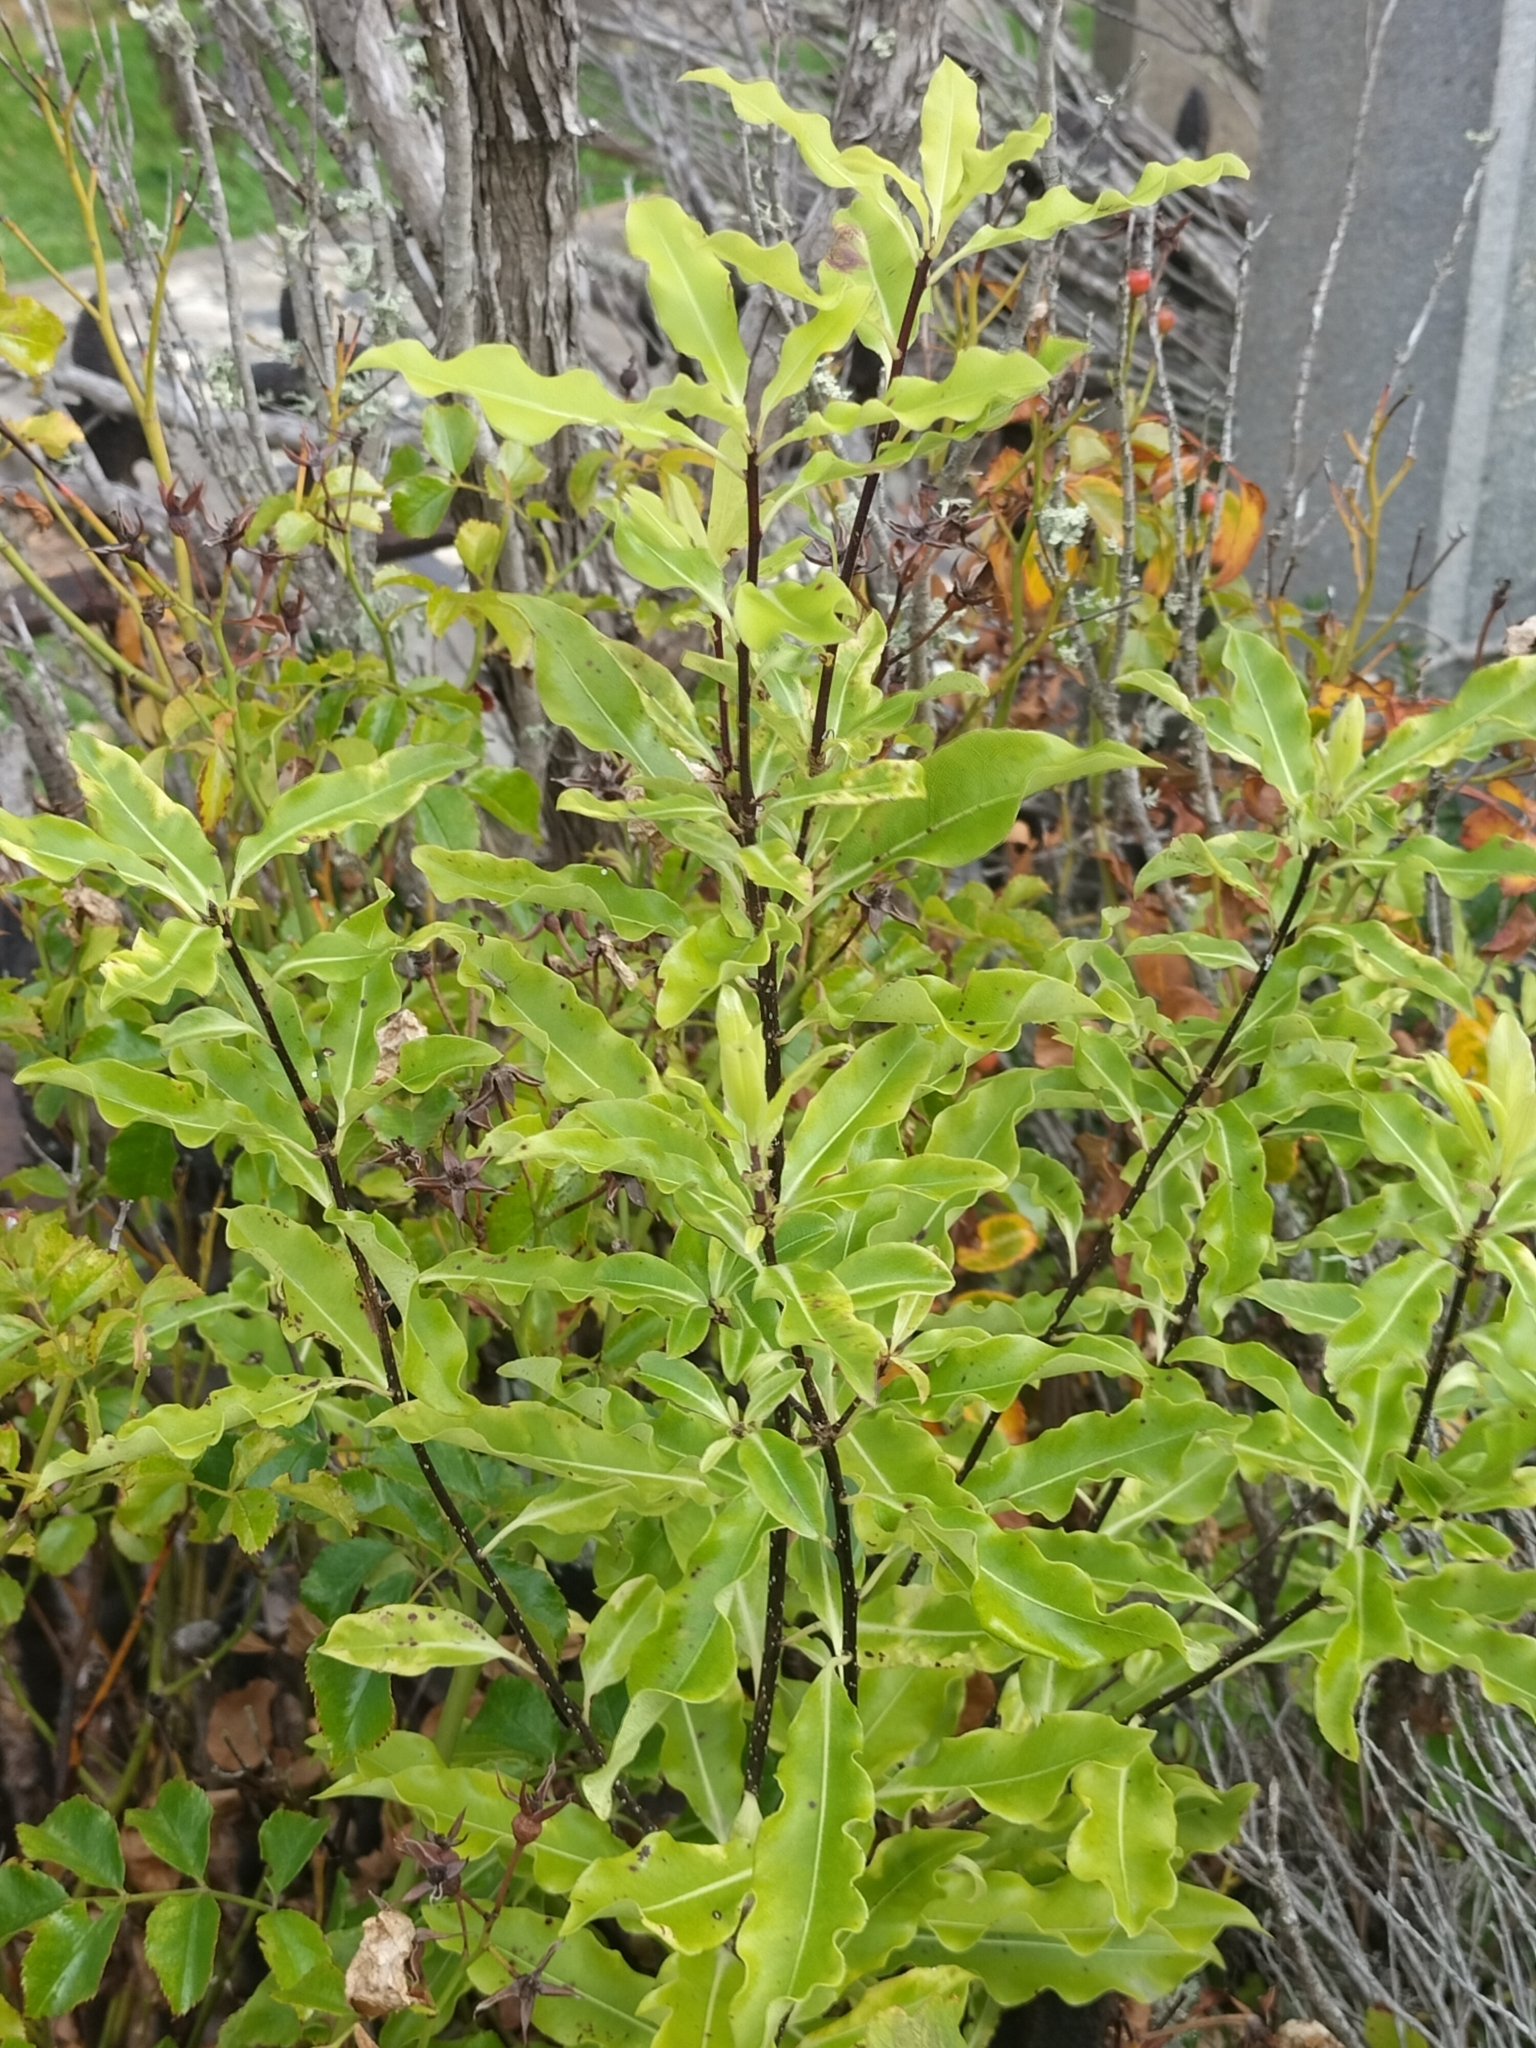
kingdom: Plantae
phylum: Tracheophyta
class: Magnoliopsida
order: Apiales
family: Pittosporaceae
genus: Pittosporum
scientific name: Pittosporum eugenioides
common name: Lemonwood
